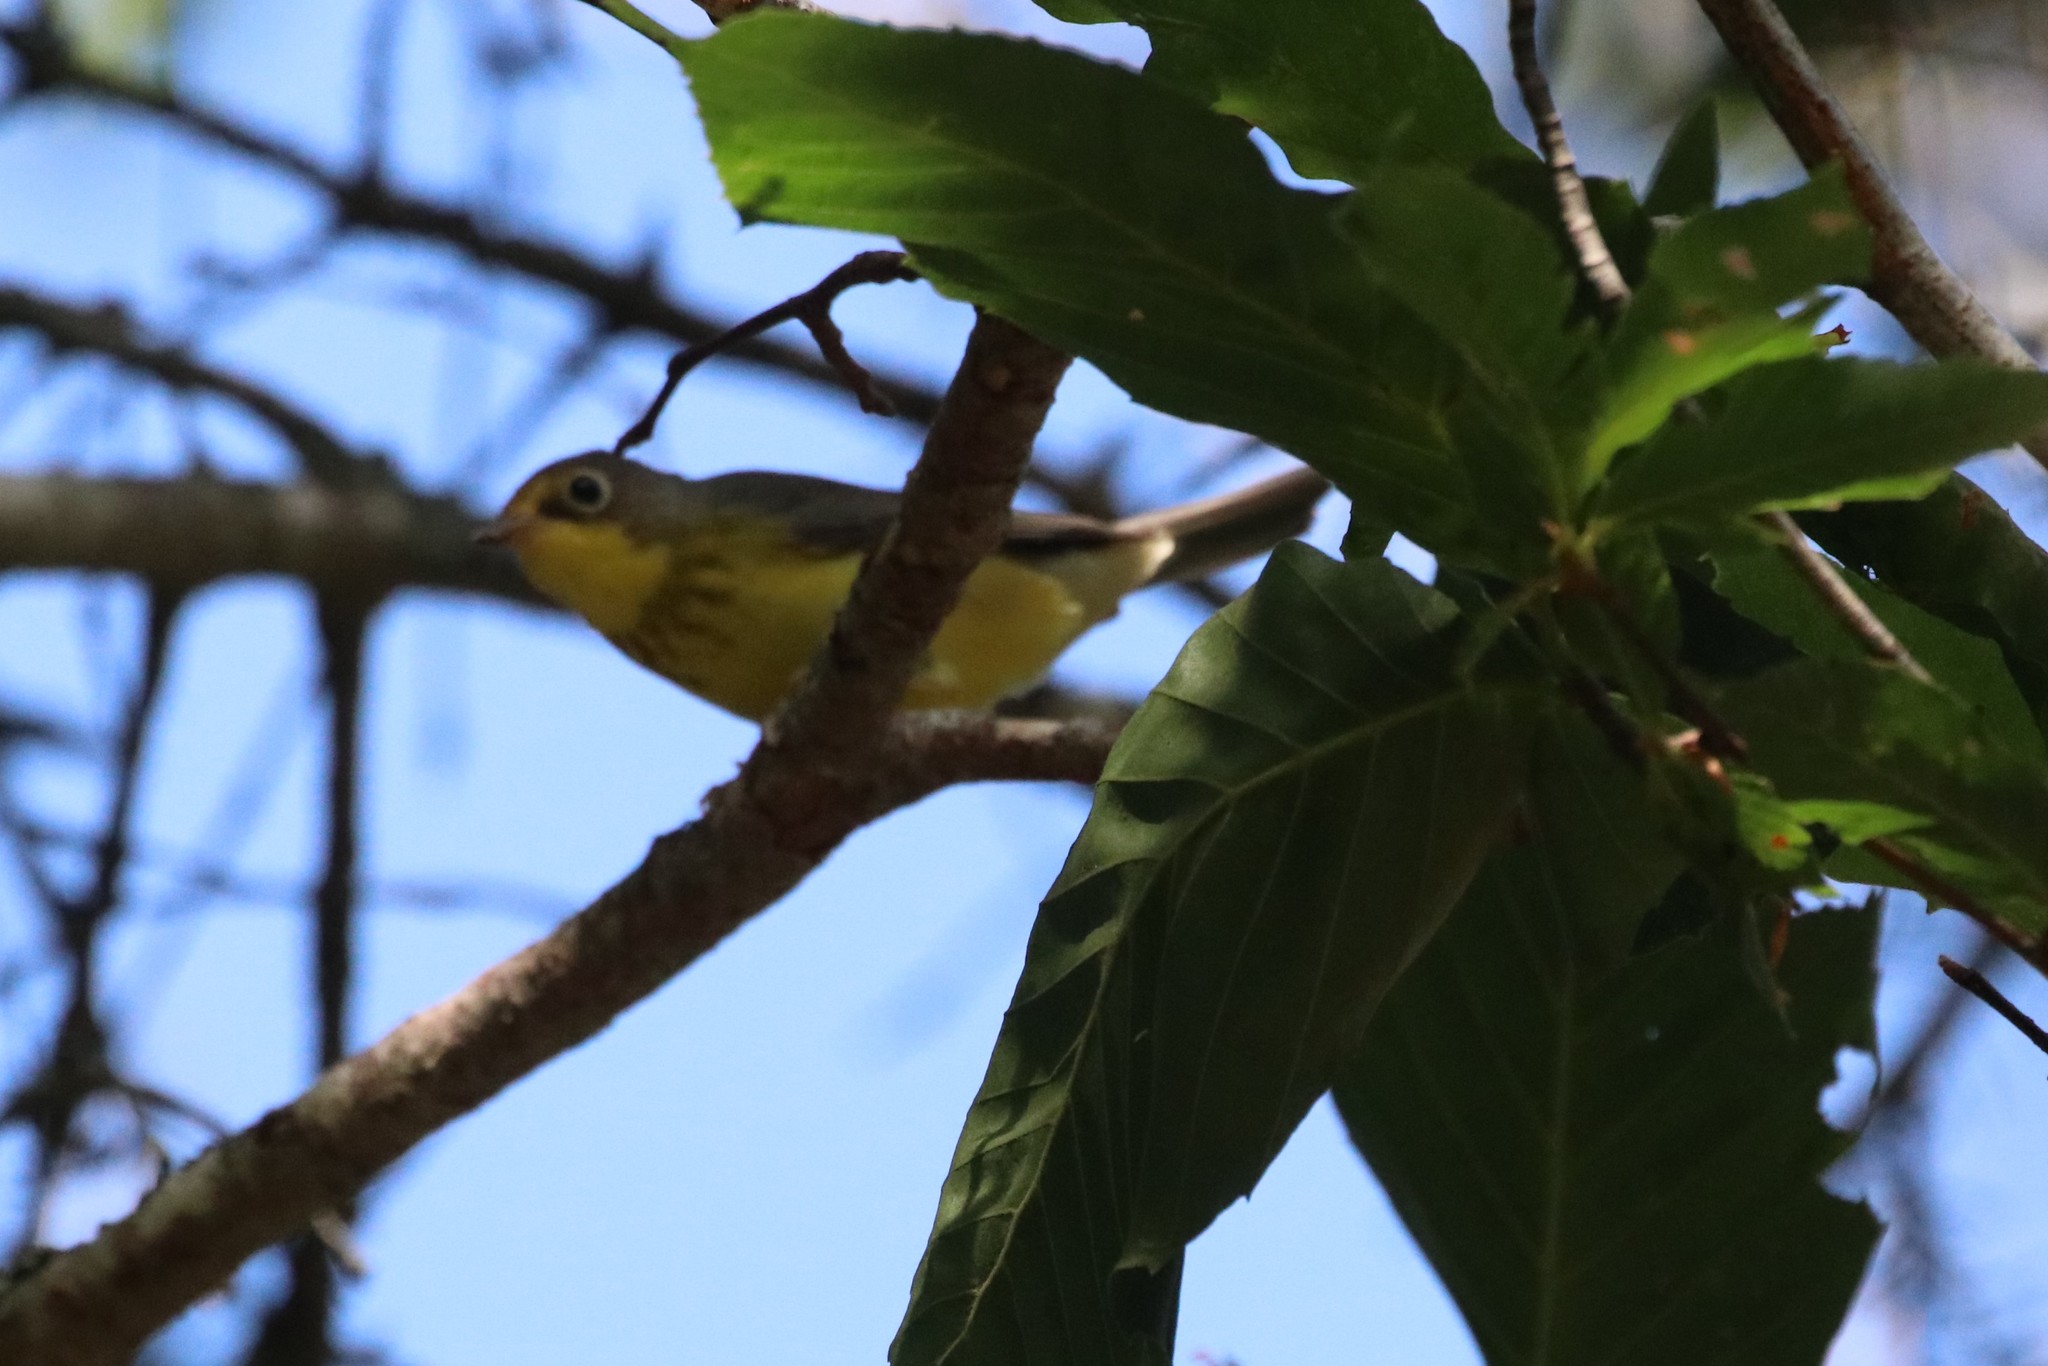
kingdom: Animalia
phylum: Chordata
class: Aves
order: Passeriformes
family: Parulidae
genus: Cardellina
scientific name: Cardellina canadensis
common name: Canada warbler
